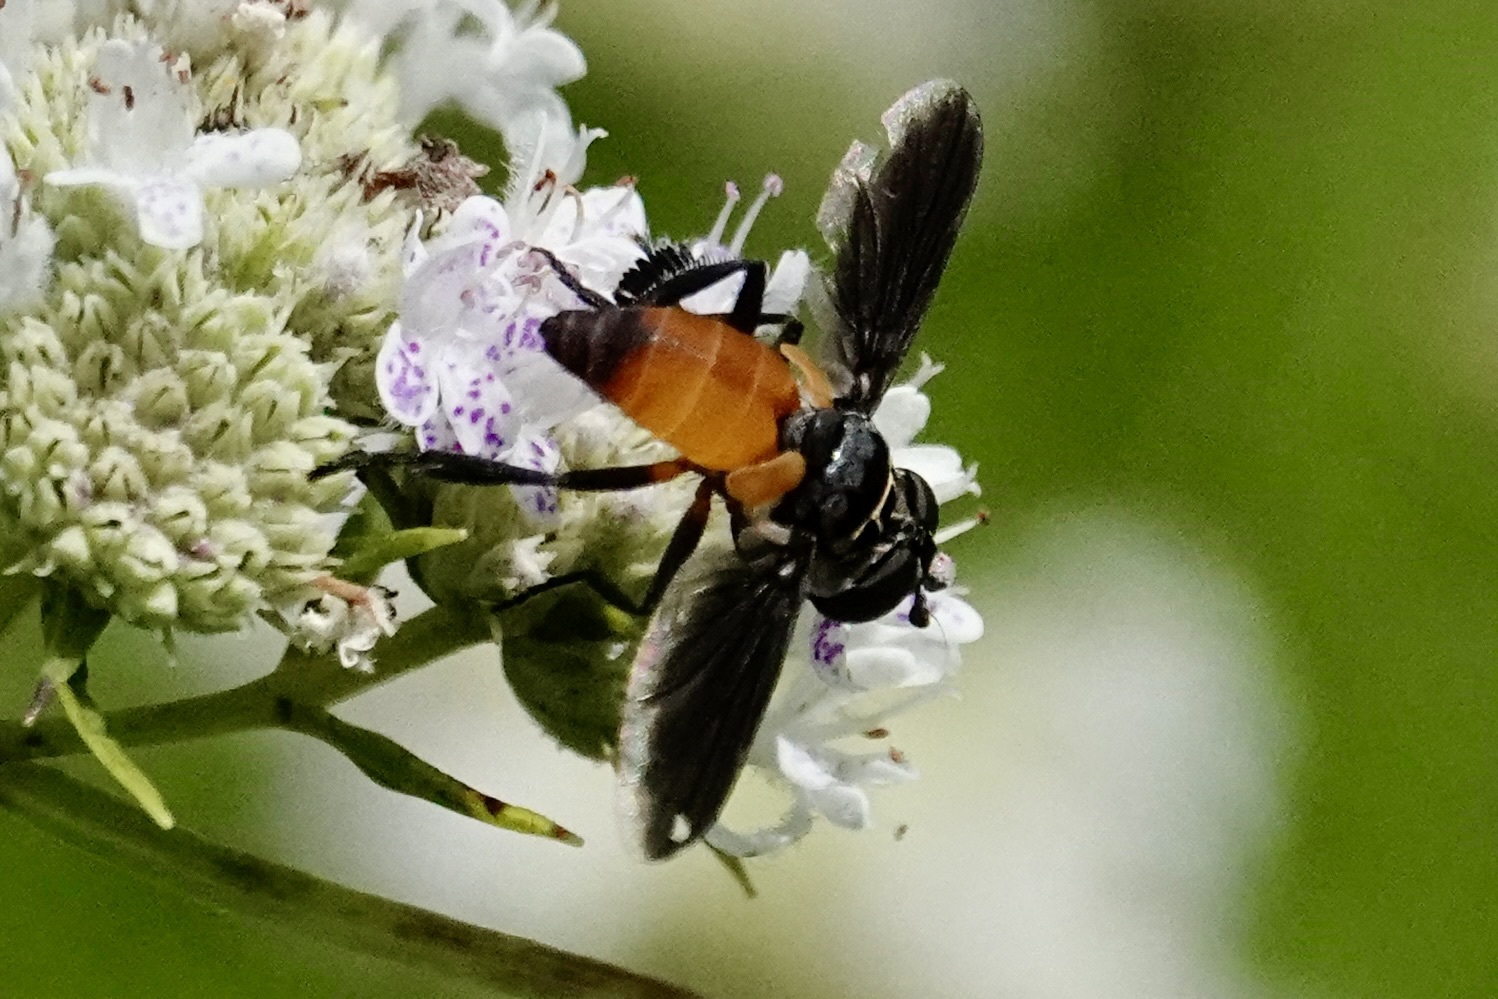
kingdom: Animalia
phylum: Arthropoda
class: Insecta
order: Diptera
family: Tachinidae
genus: Trichopoda
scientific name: Trichopoda pennipes
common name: Tachinid fly
